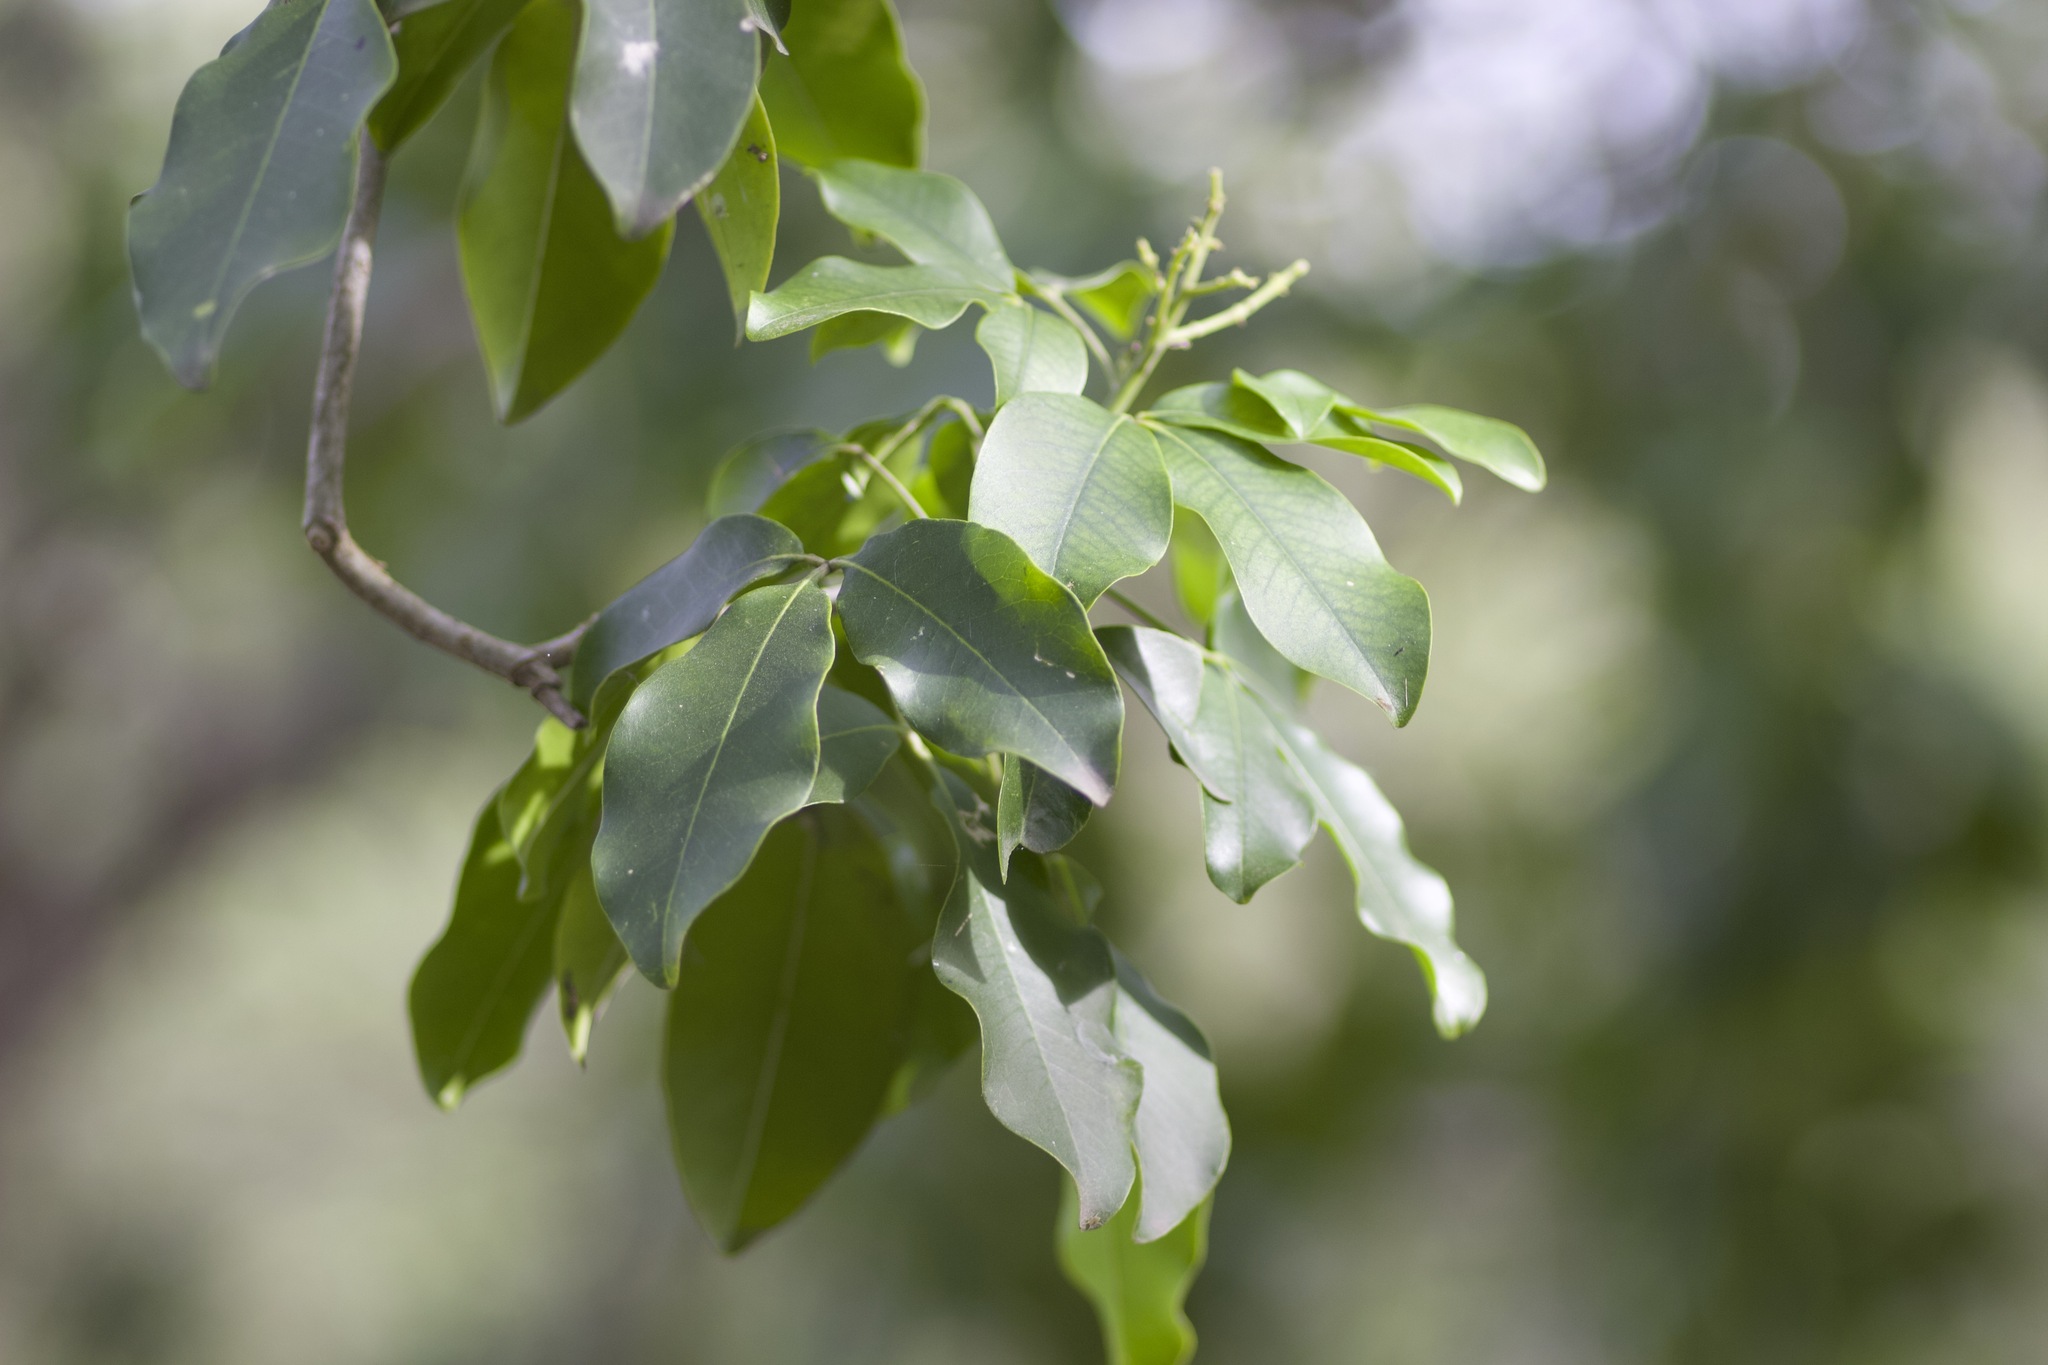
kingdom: Plantae
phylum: Tracheophyta
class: Magnoliopsida
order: Sapindales
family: Rutaceae
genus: Esenbeckia
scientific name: Esenbeckia berlandieri
